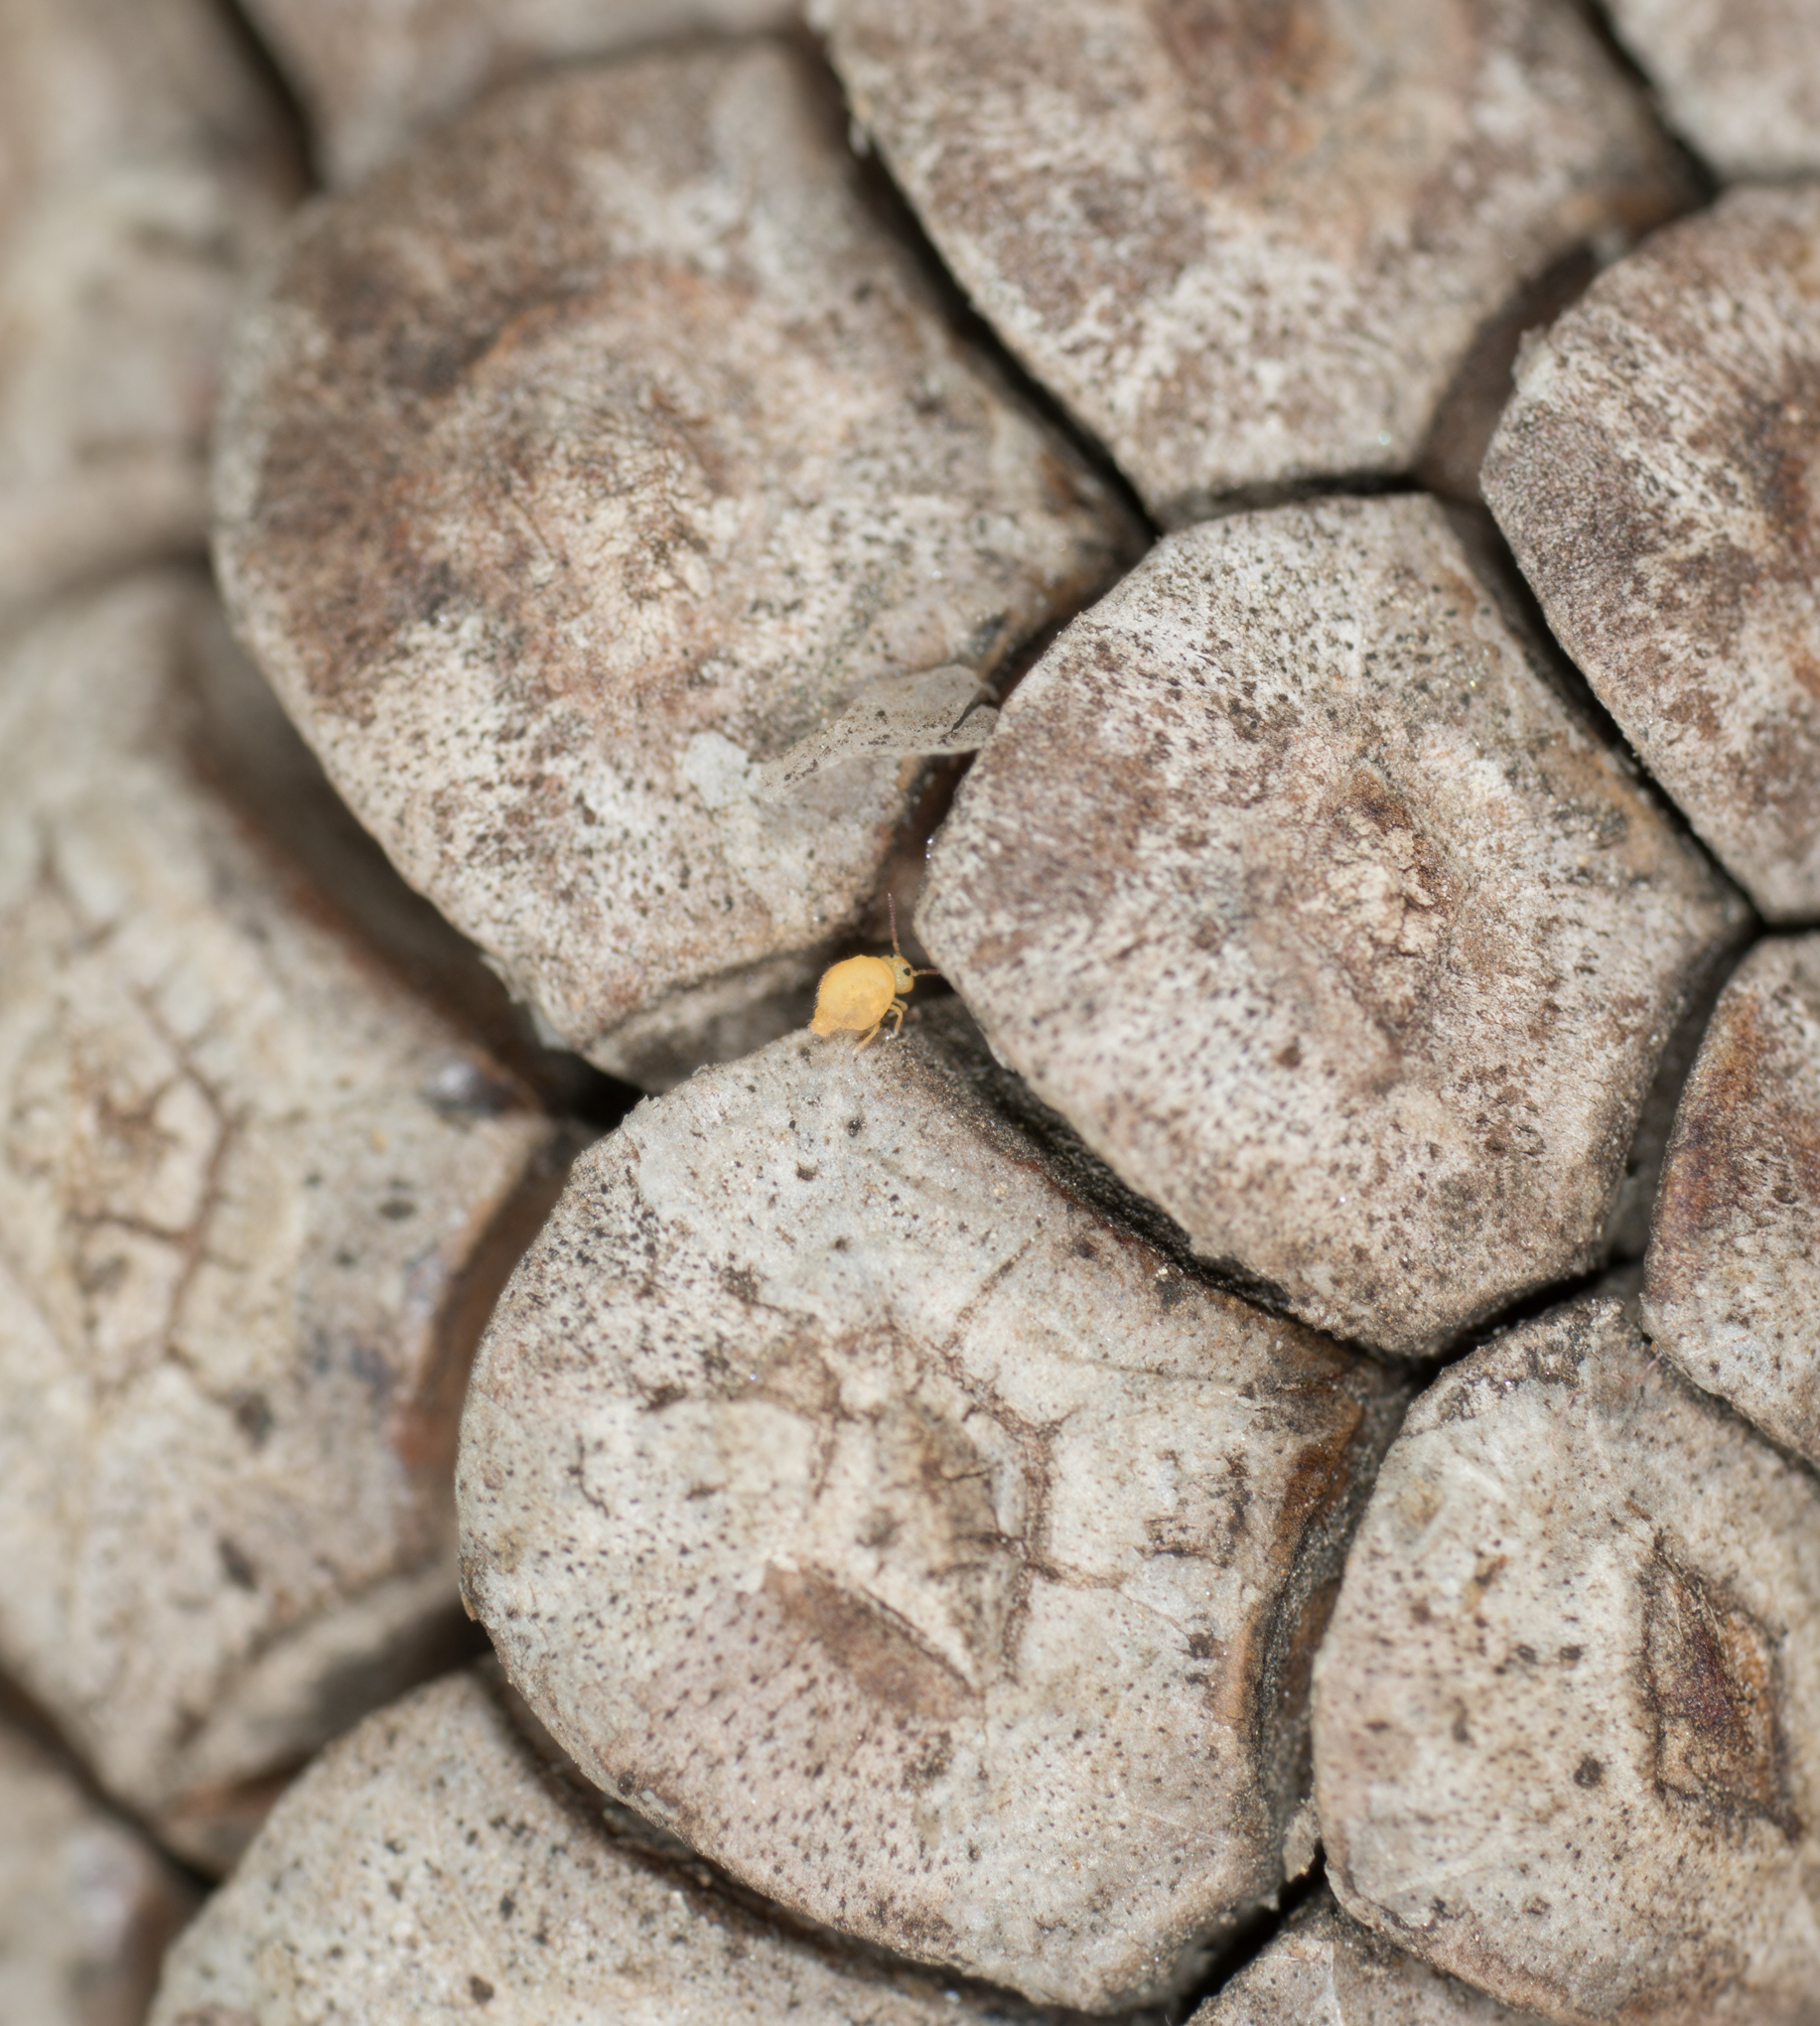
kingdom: Animalia
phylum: Arthropoda
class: Collembola
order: Symphypleona
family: Bourletiellidae
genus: Bourletiella
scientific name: Bourletiella arvalis
